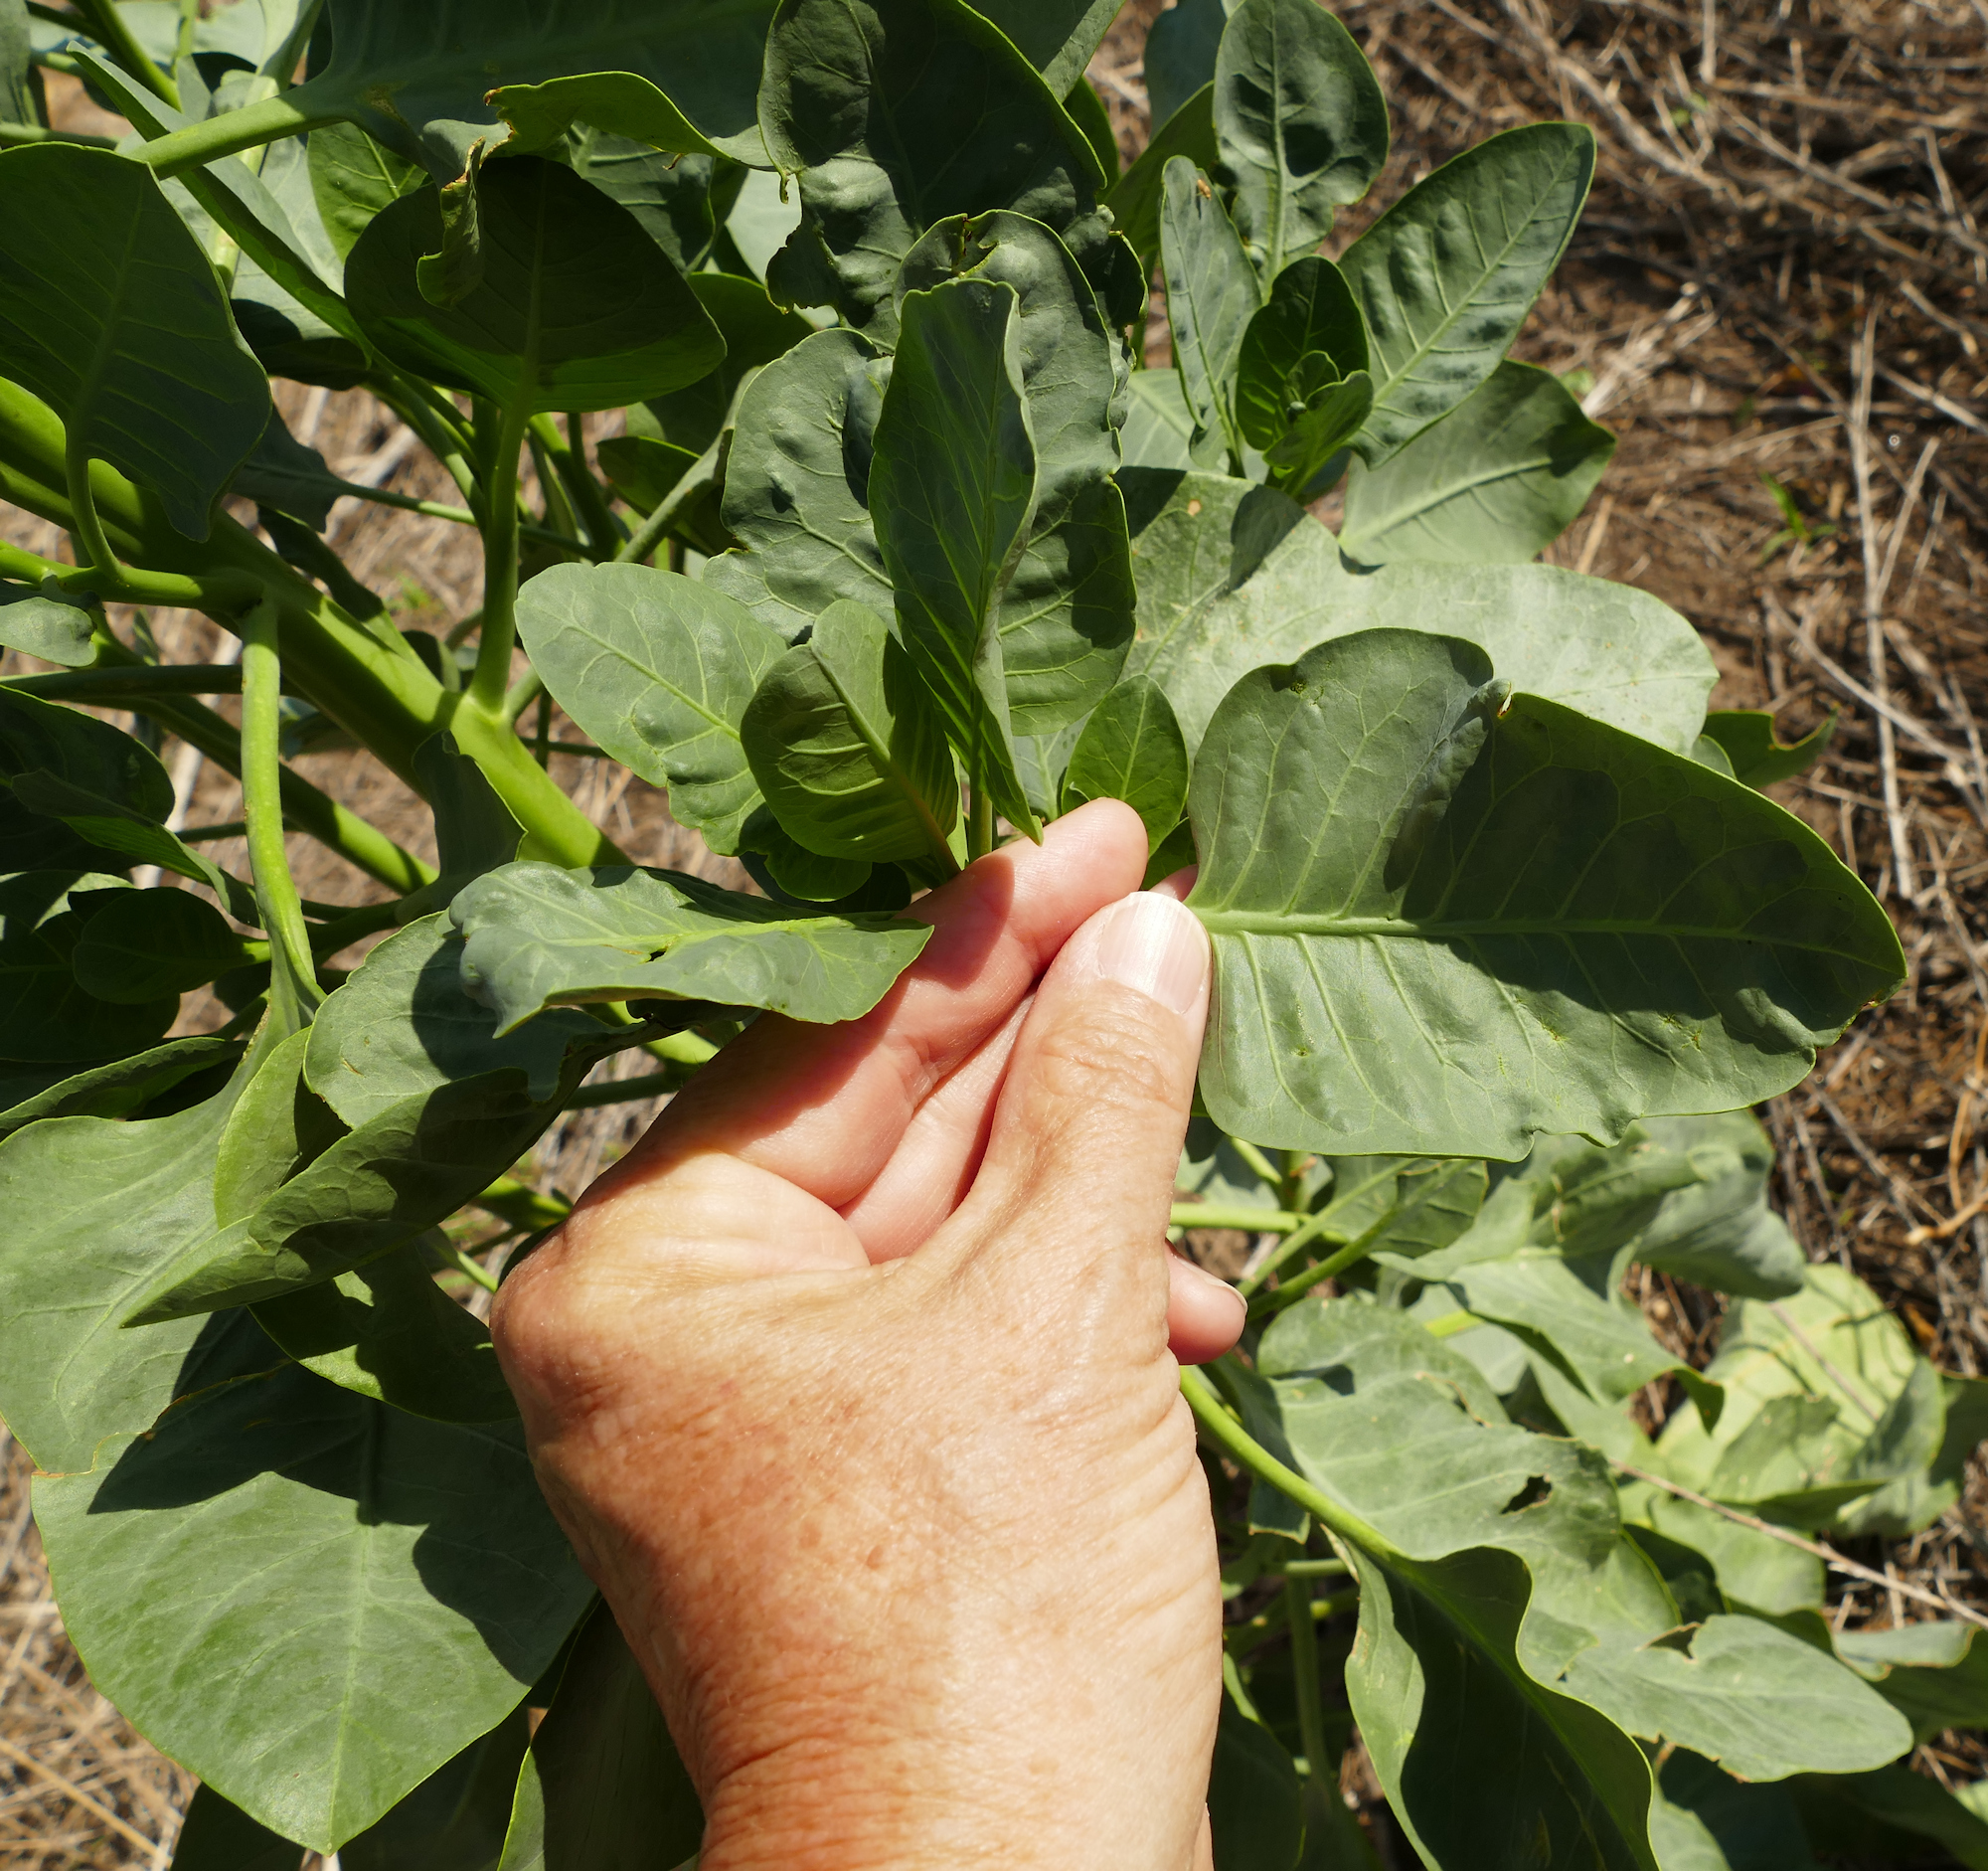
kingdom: Plantae
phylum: Tracheophyta
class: Magnoliopsida
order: Solanales
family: Solanaceae
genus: Nicotiana
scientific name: Nicotiana glauca
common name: Tree tobacco
